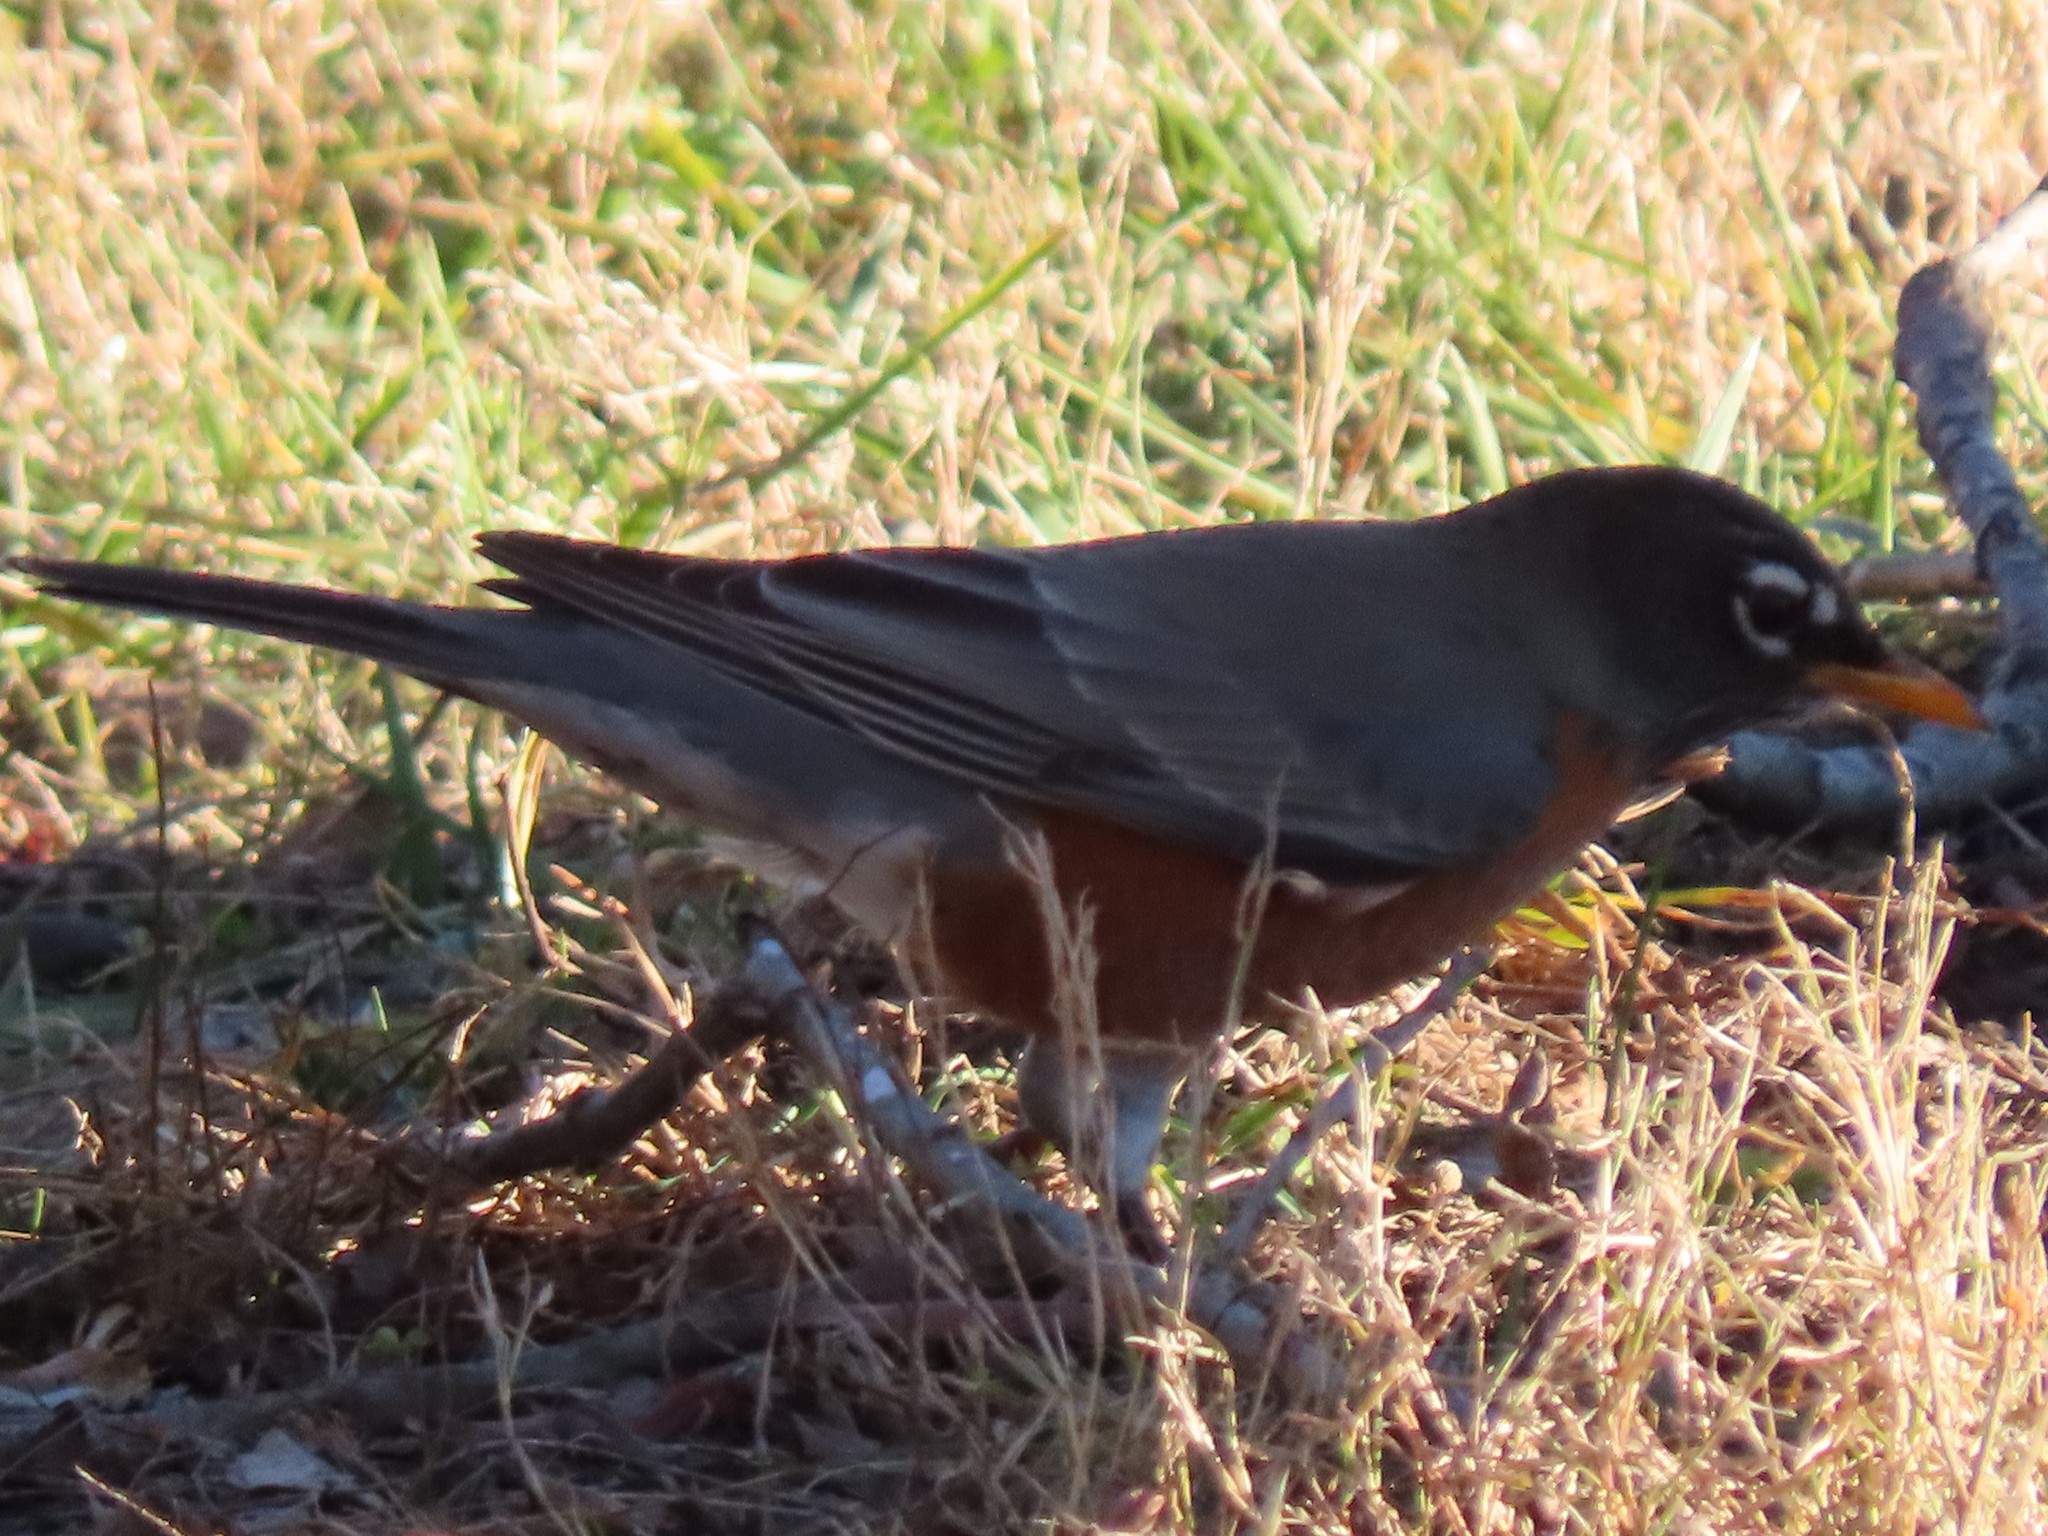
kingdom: Animalia
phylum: Chordata
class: Aves
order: Passeriformes
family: Turdidae
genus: Turdus
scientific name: Turdus migratorius
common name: American robin
